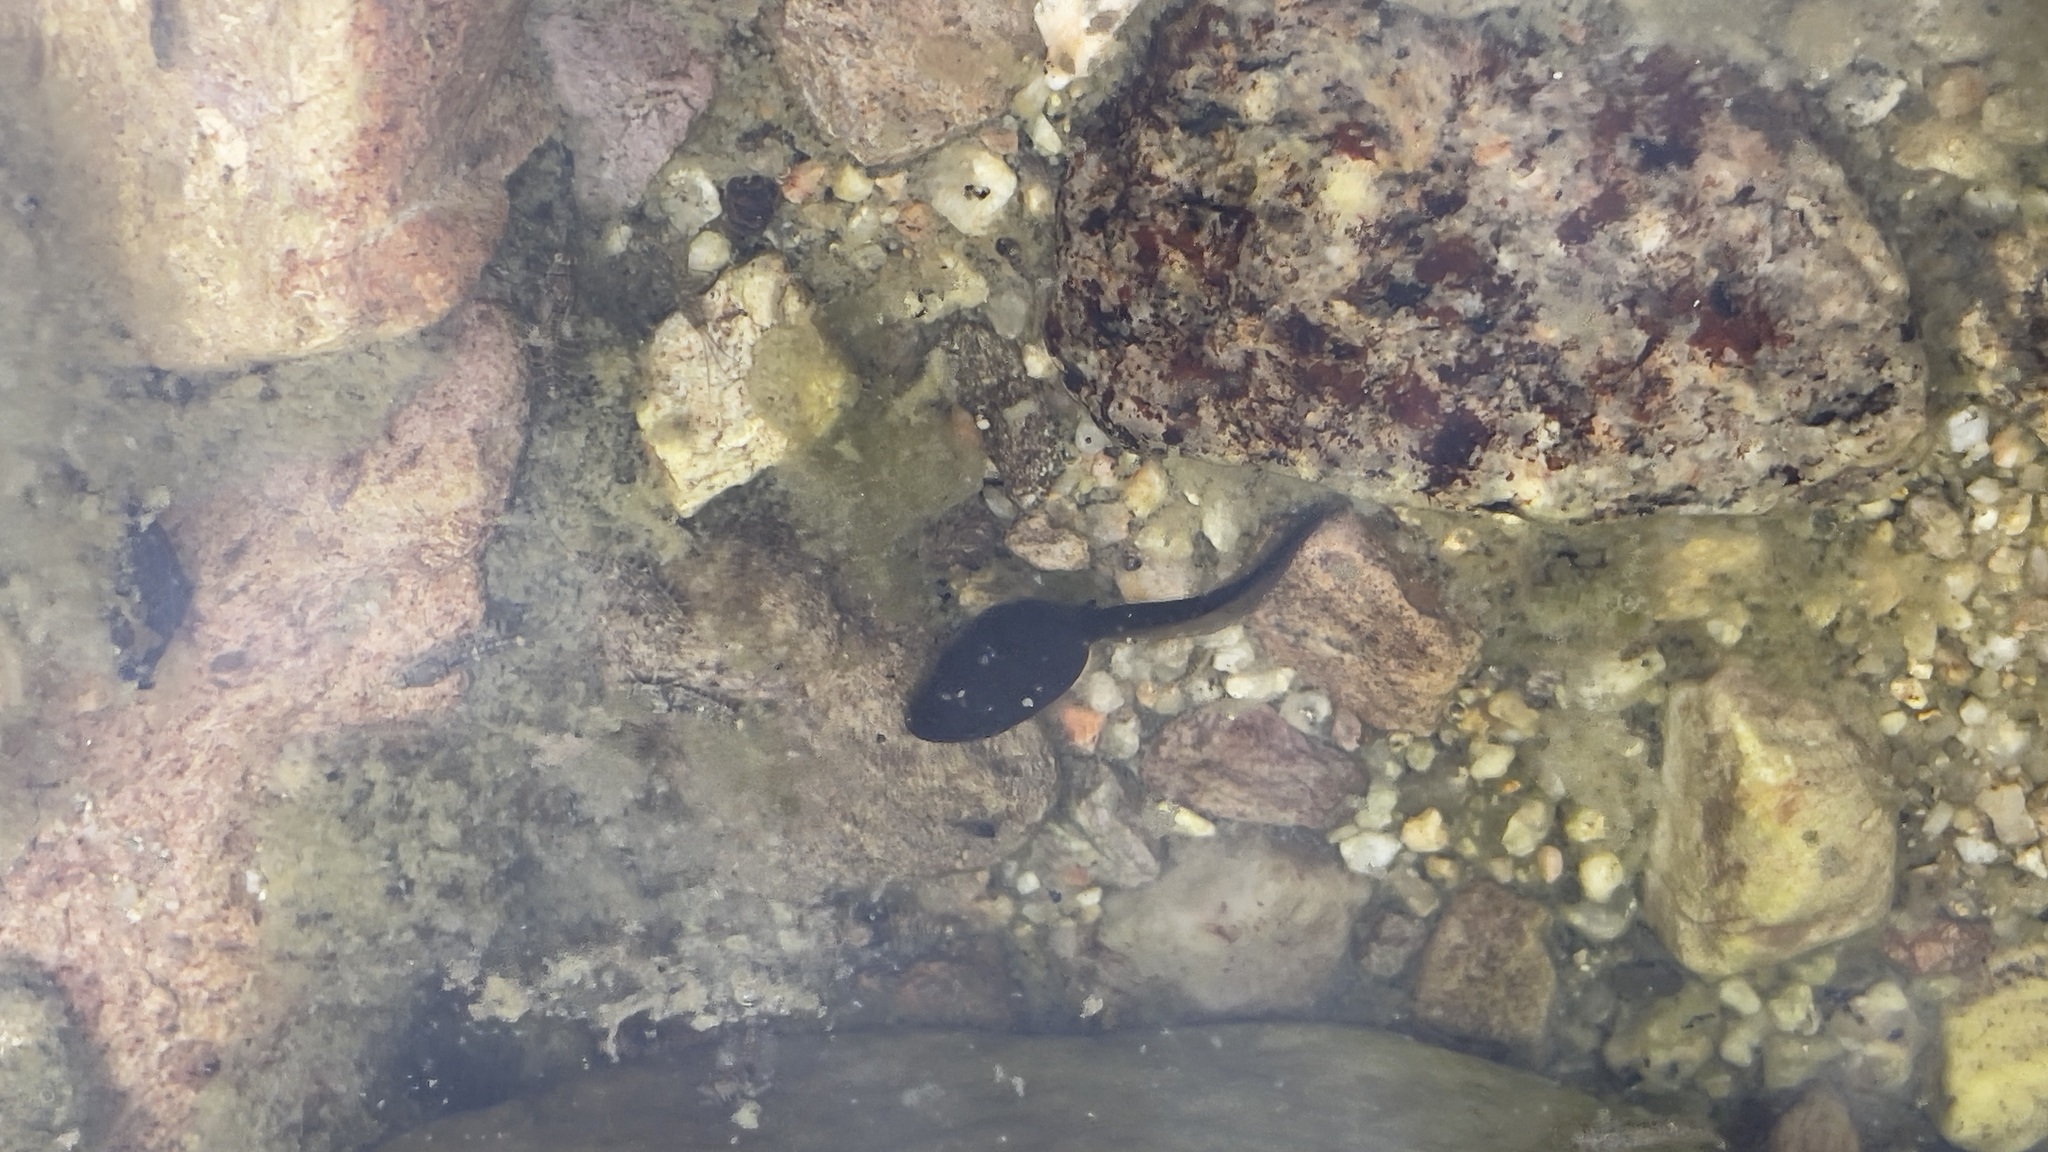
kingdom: Animalia
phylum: Chordata
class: Amphibia
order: Anura
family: Bufonidae
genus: Anaxyrus
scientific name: Anaxyrus boreas
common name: Western toad
